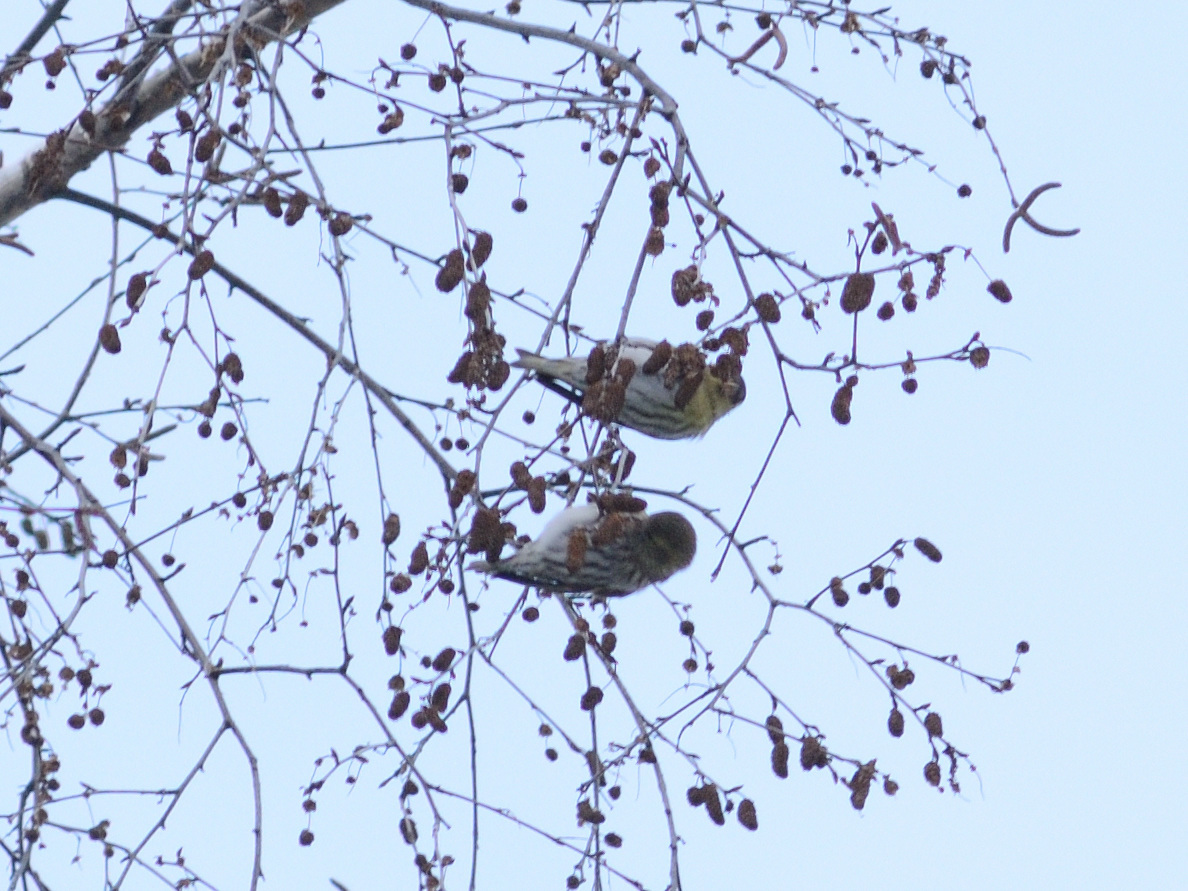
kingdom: Animalia
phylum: Chordata
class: Aves
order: Passeriformes
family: Fringillidae
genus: Spinus
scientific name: Spinus spinus
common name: Eurasian siskin
